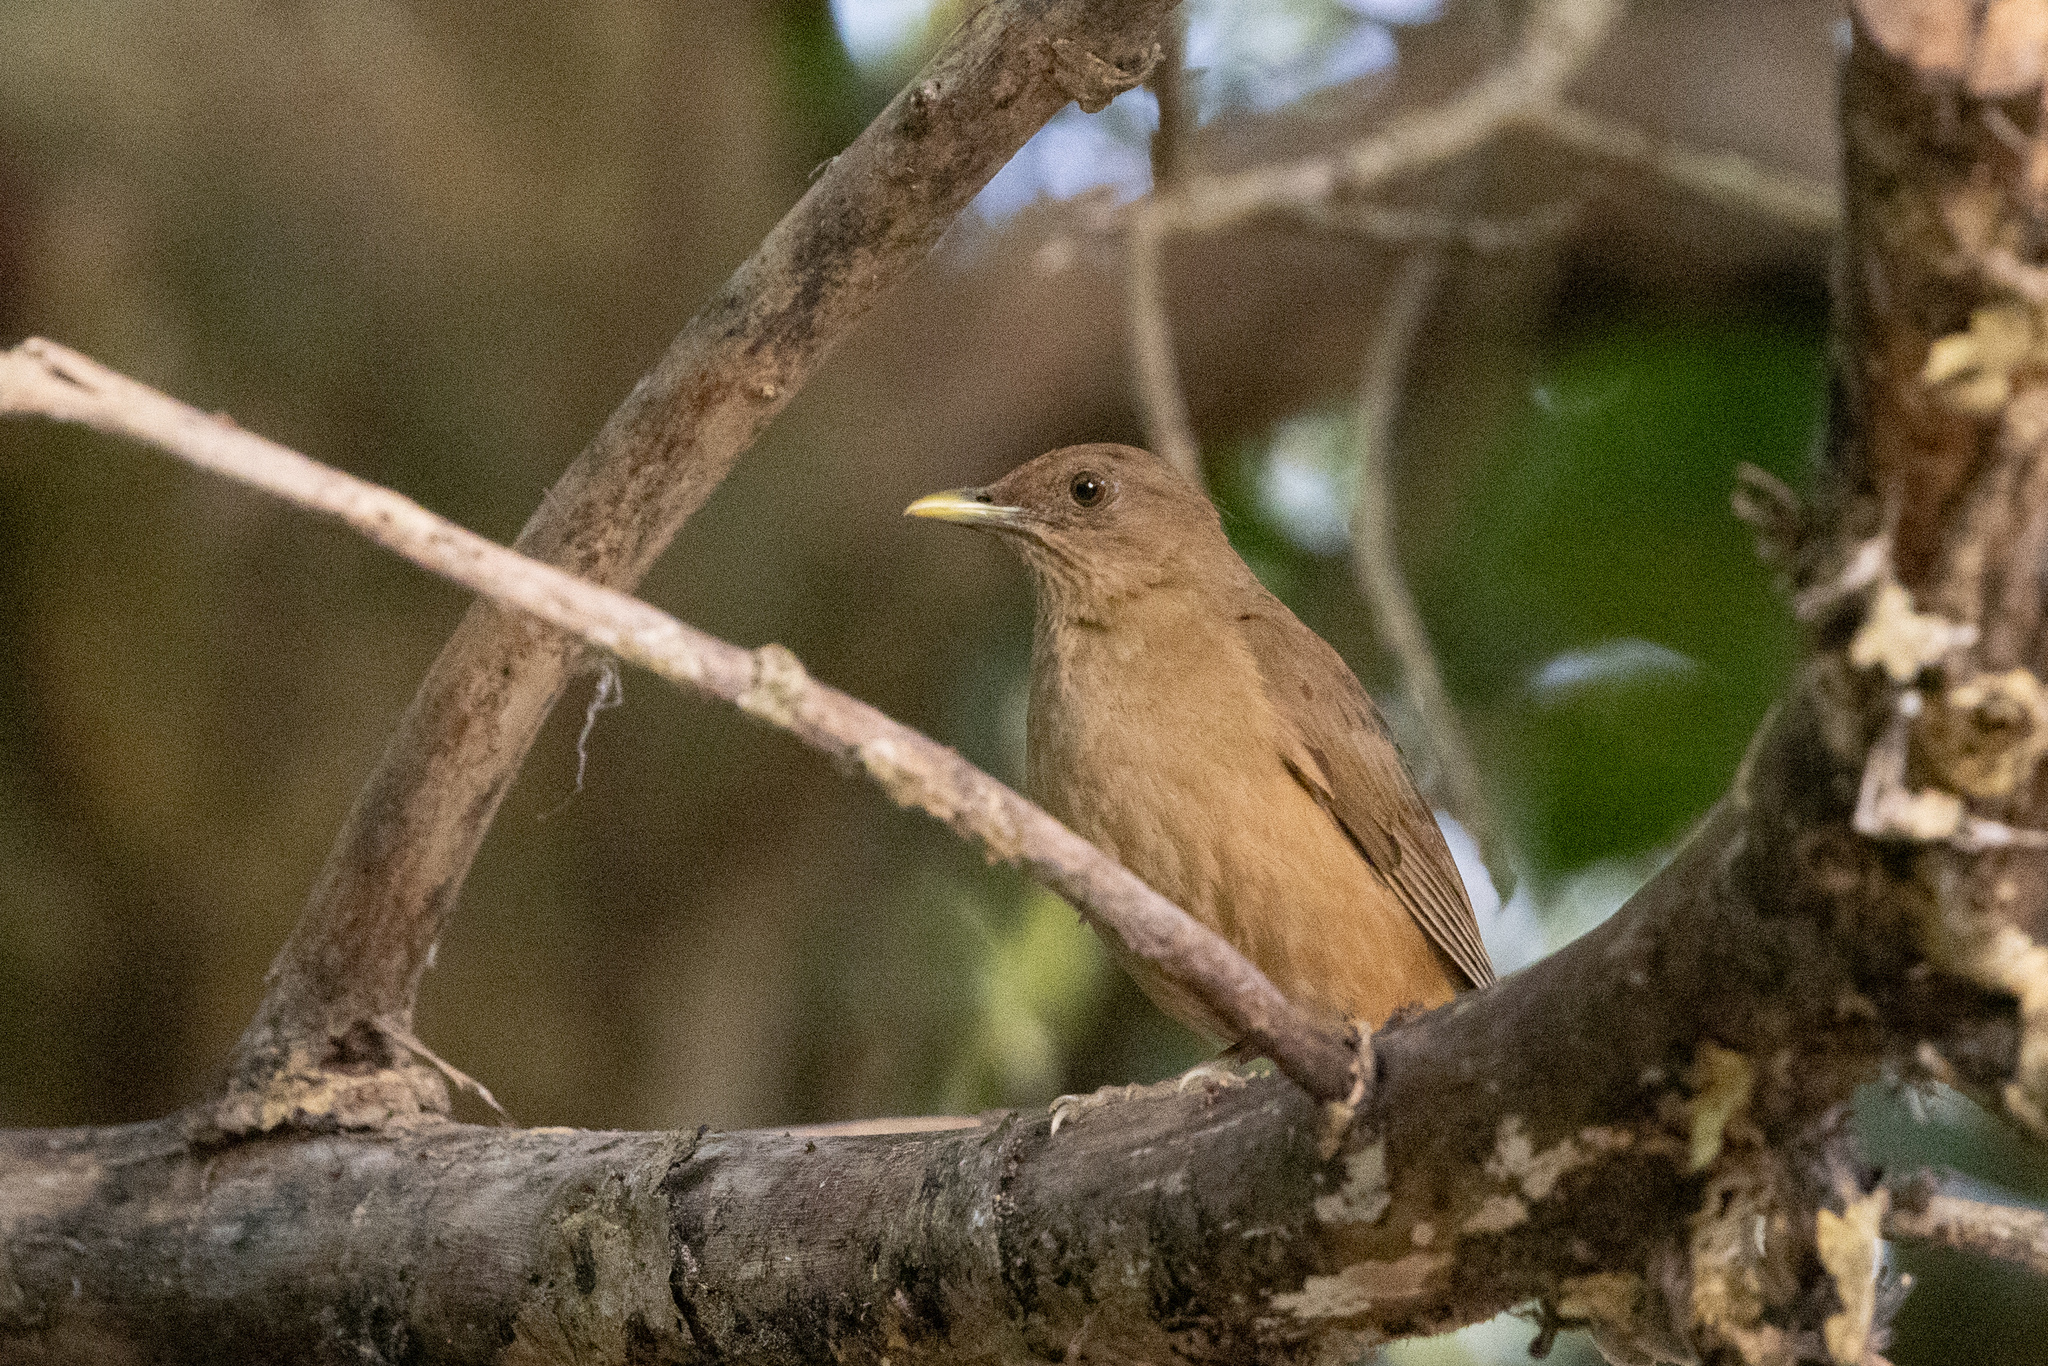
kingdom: Animalia
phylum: Chordata
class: Aves
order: Passeriformes
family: Turdidae
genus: Turdus
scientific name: Turdus grayi
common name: Clay-colored thrush
